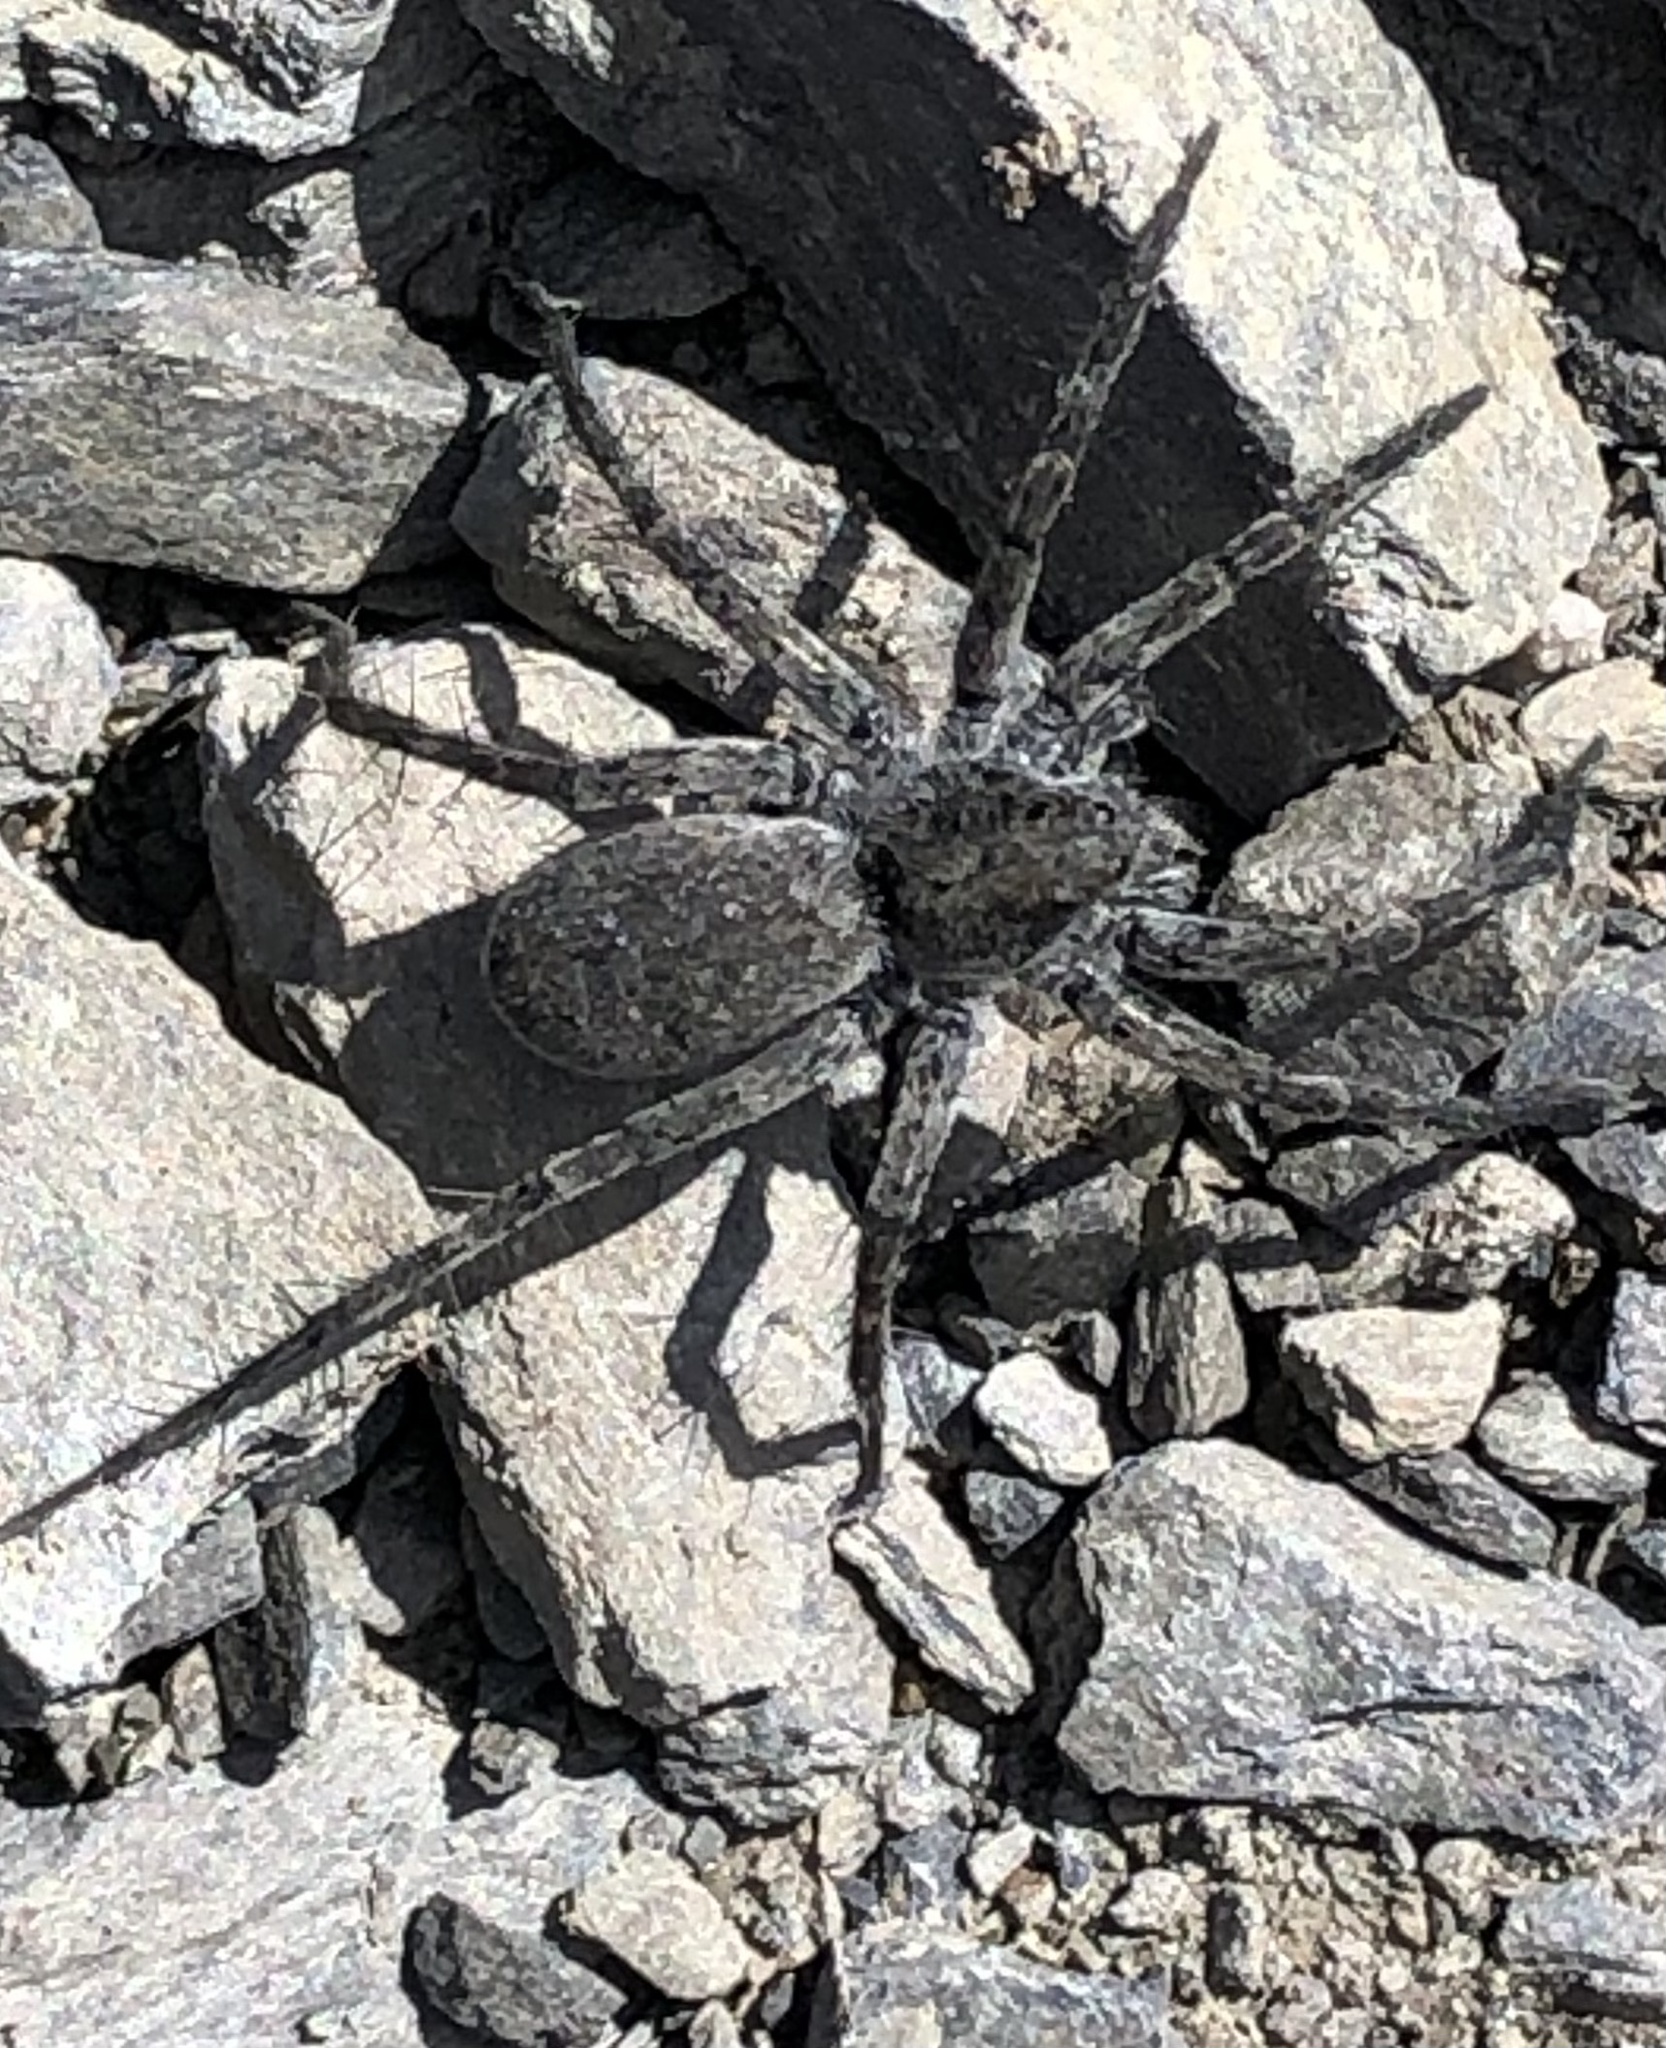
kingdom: Animalia
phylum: Arthropoda
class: Arachnida
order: Araneae
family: Lycosidae
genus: Pardosa
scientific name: Pardosa saturatior
